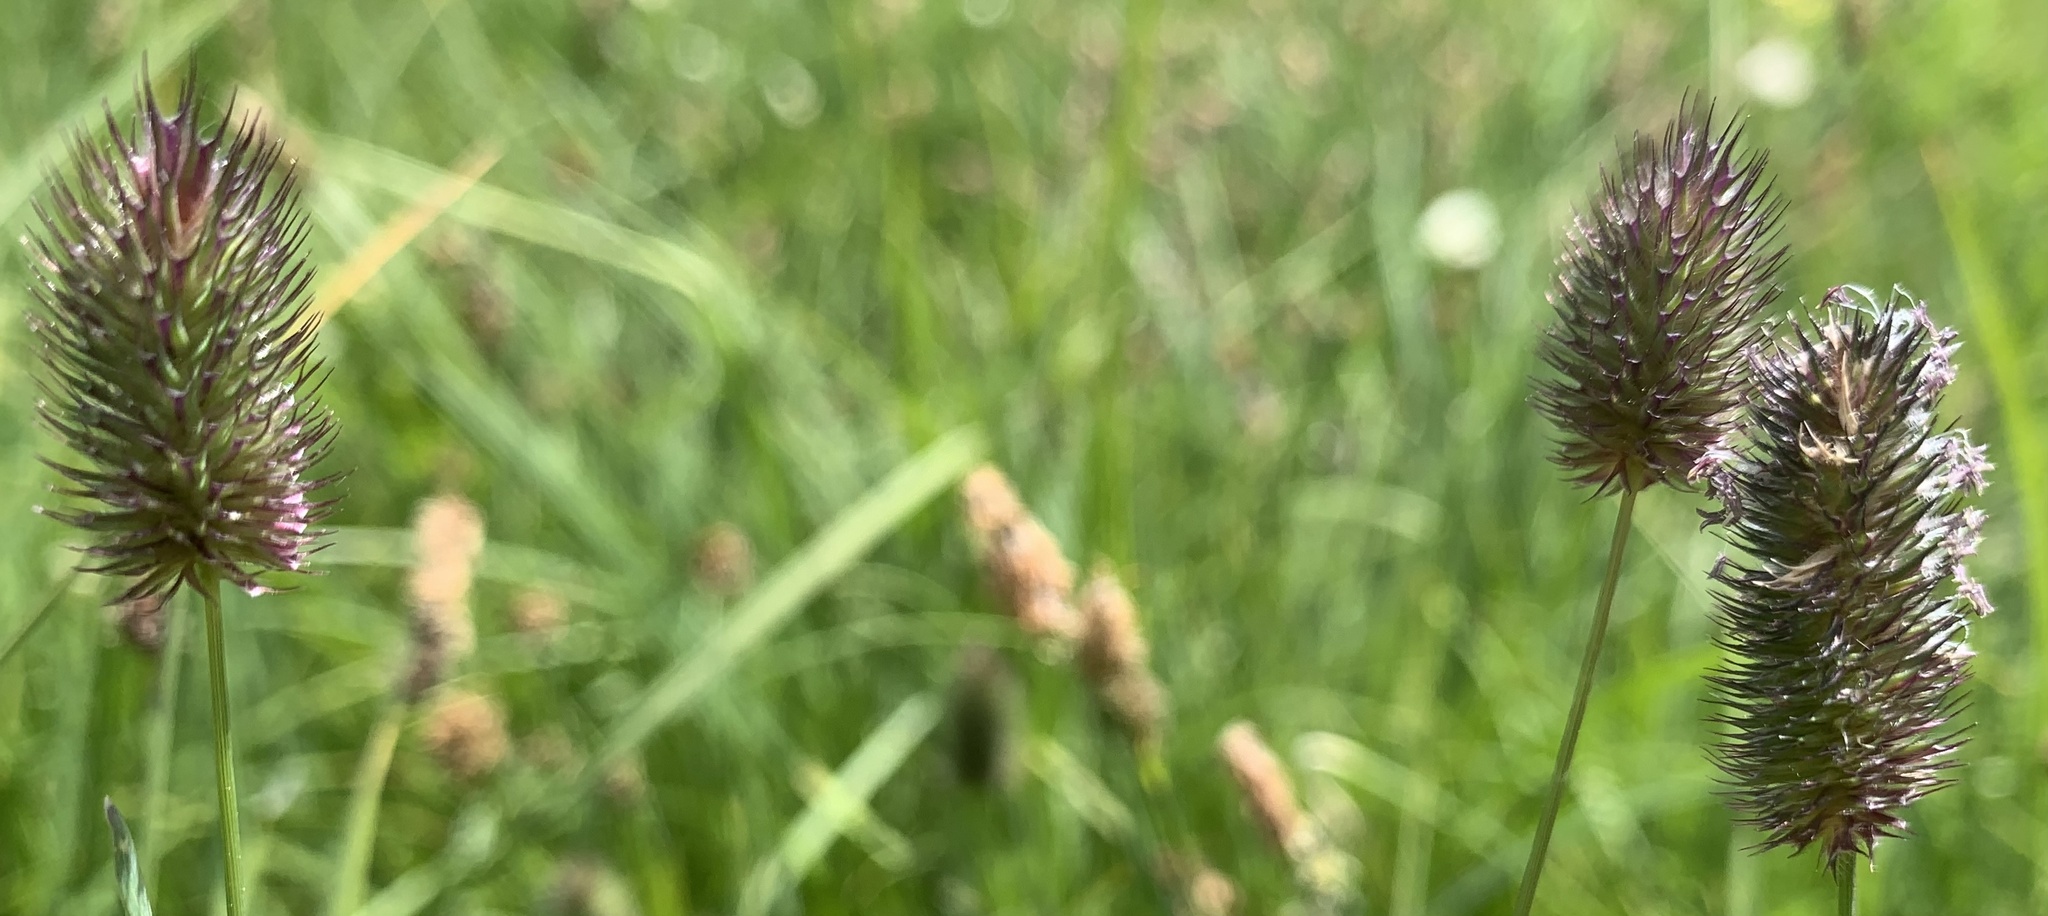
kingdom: Plantae
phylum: Tracheophyta
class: Liliopsida
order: Poales
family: Poaceae
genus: Phleum
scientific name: Phleum alpinum
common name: Alpine cat's-tail
